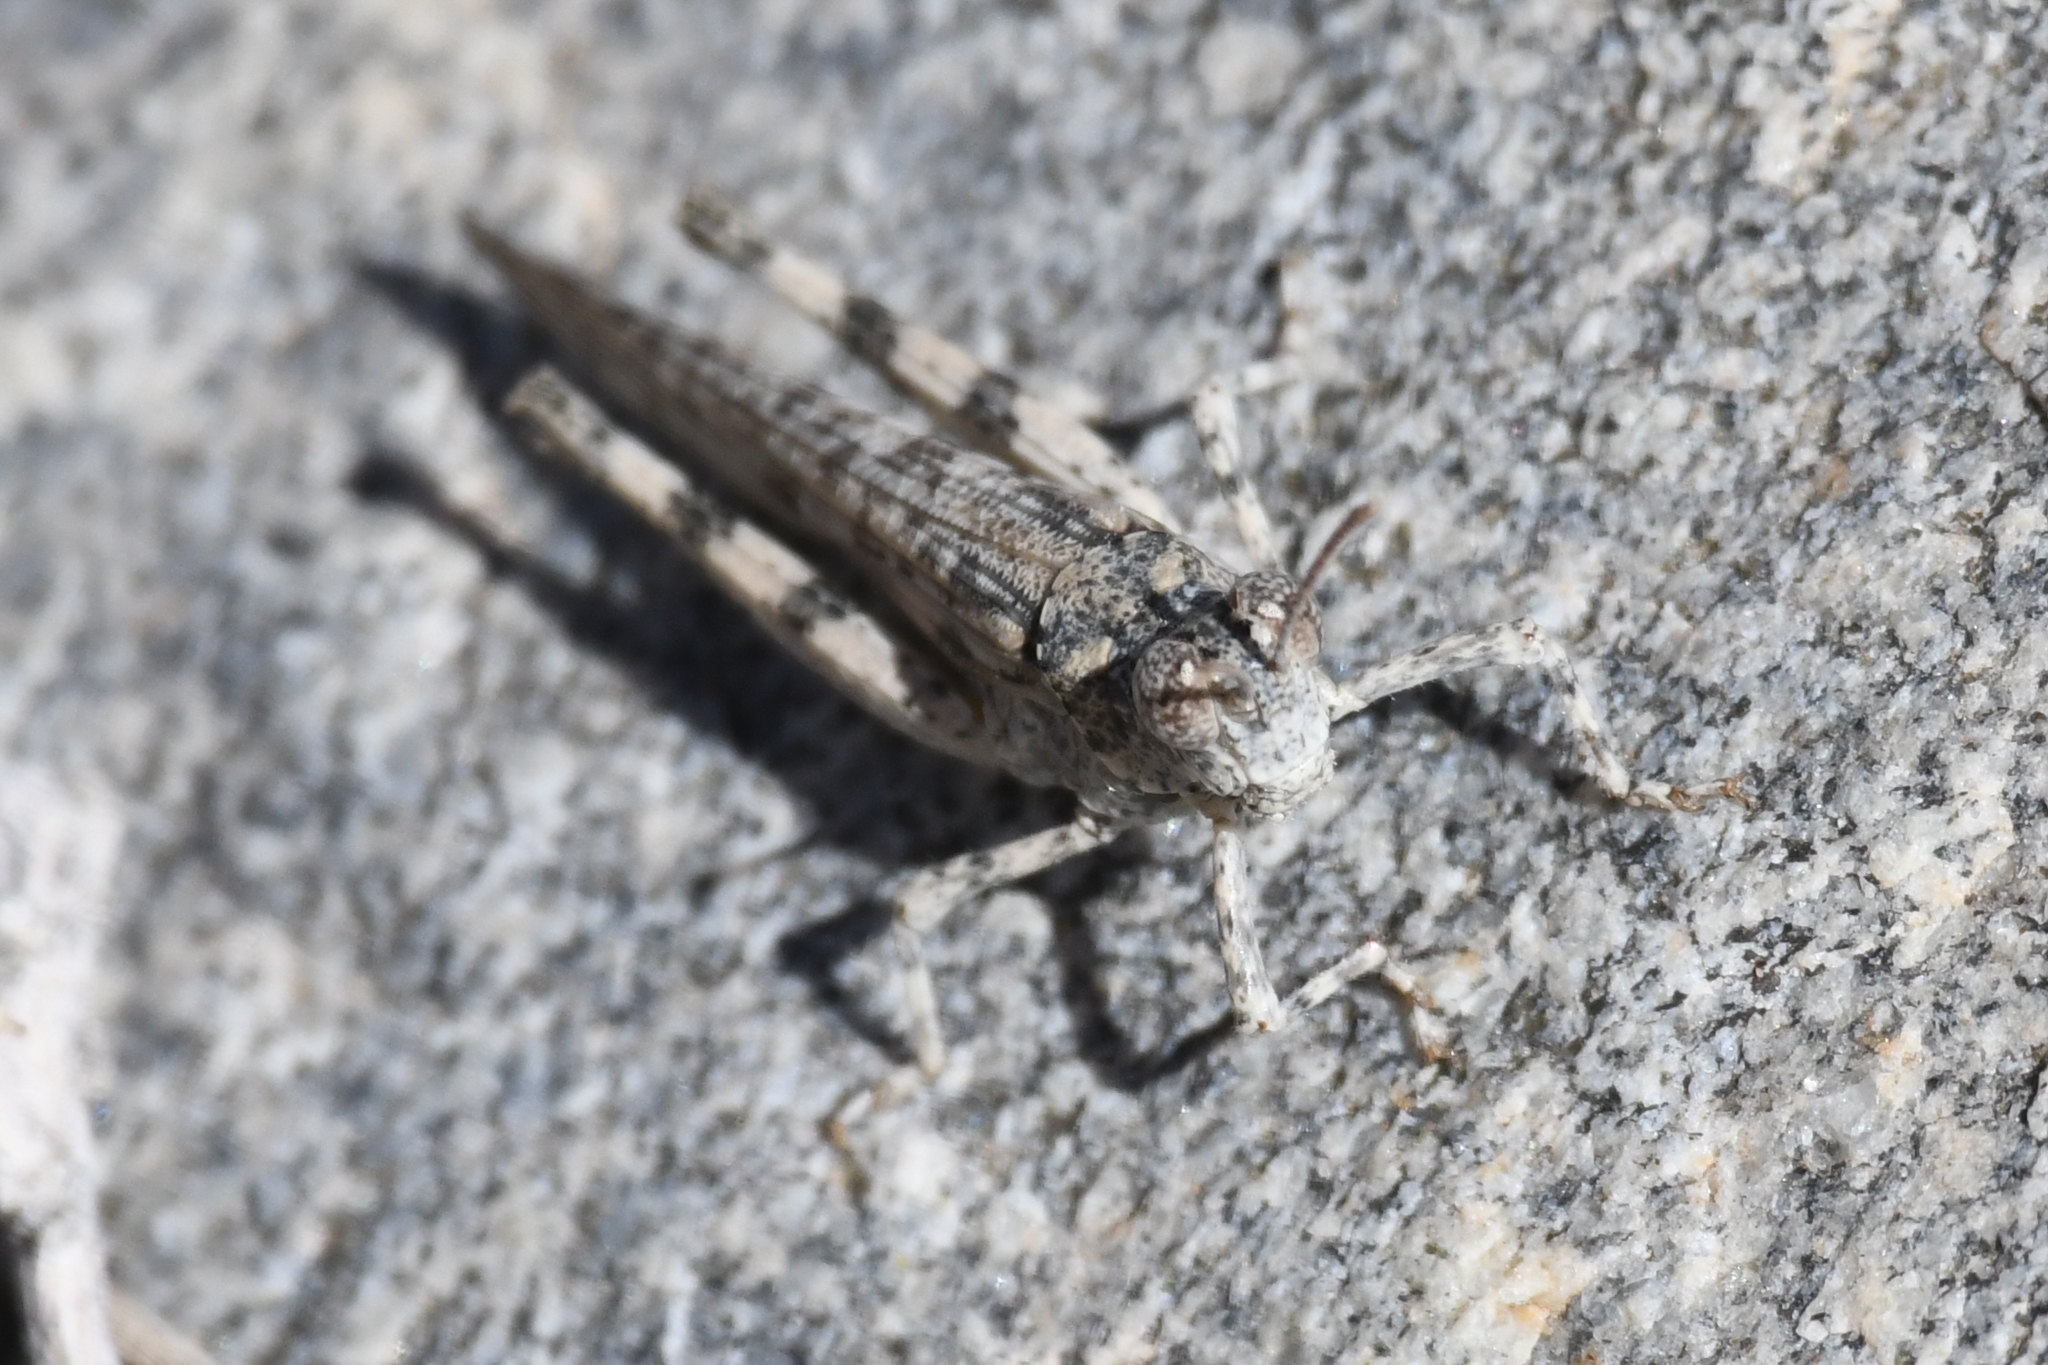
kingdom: Animalia
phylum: Arthropoda
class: Insecta
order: Orthoptera
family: Acrididae
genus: Anconia
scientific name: Anconia integra
